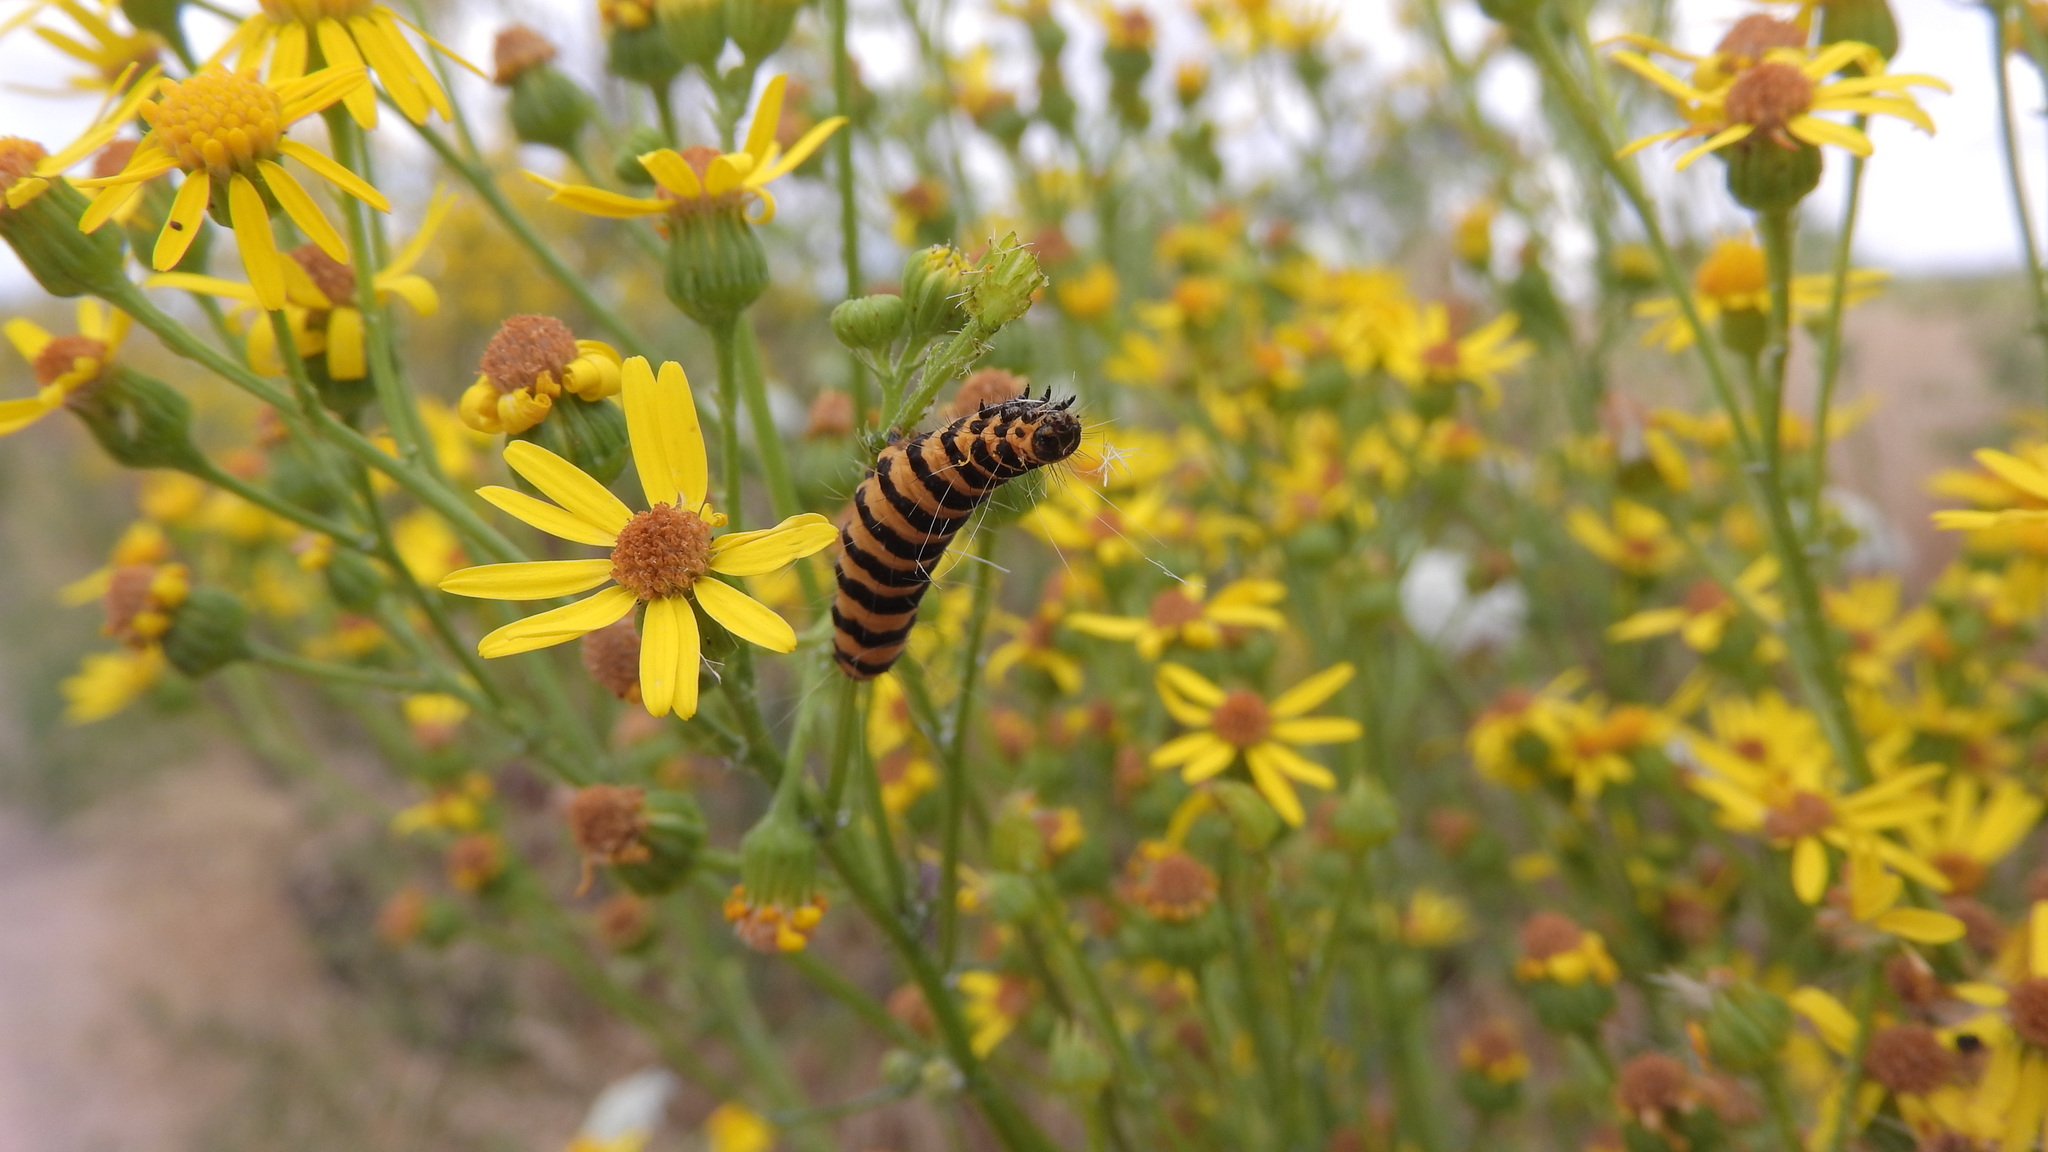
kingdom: Animalia
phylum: Arthropoda
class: Insecta
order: Lepidoptera
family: Erebidae
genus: Tyria
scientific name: Tyria jacobaeae
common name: Cinnabar
